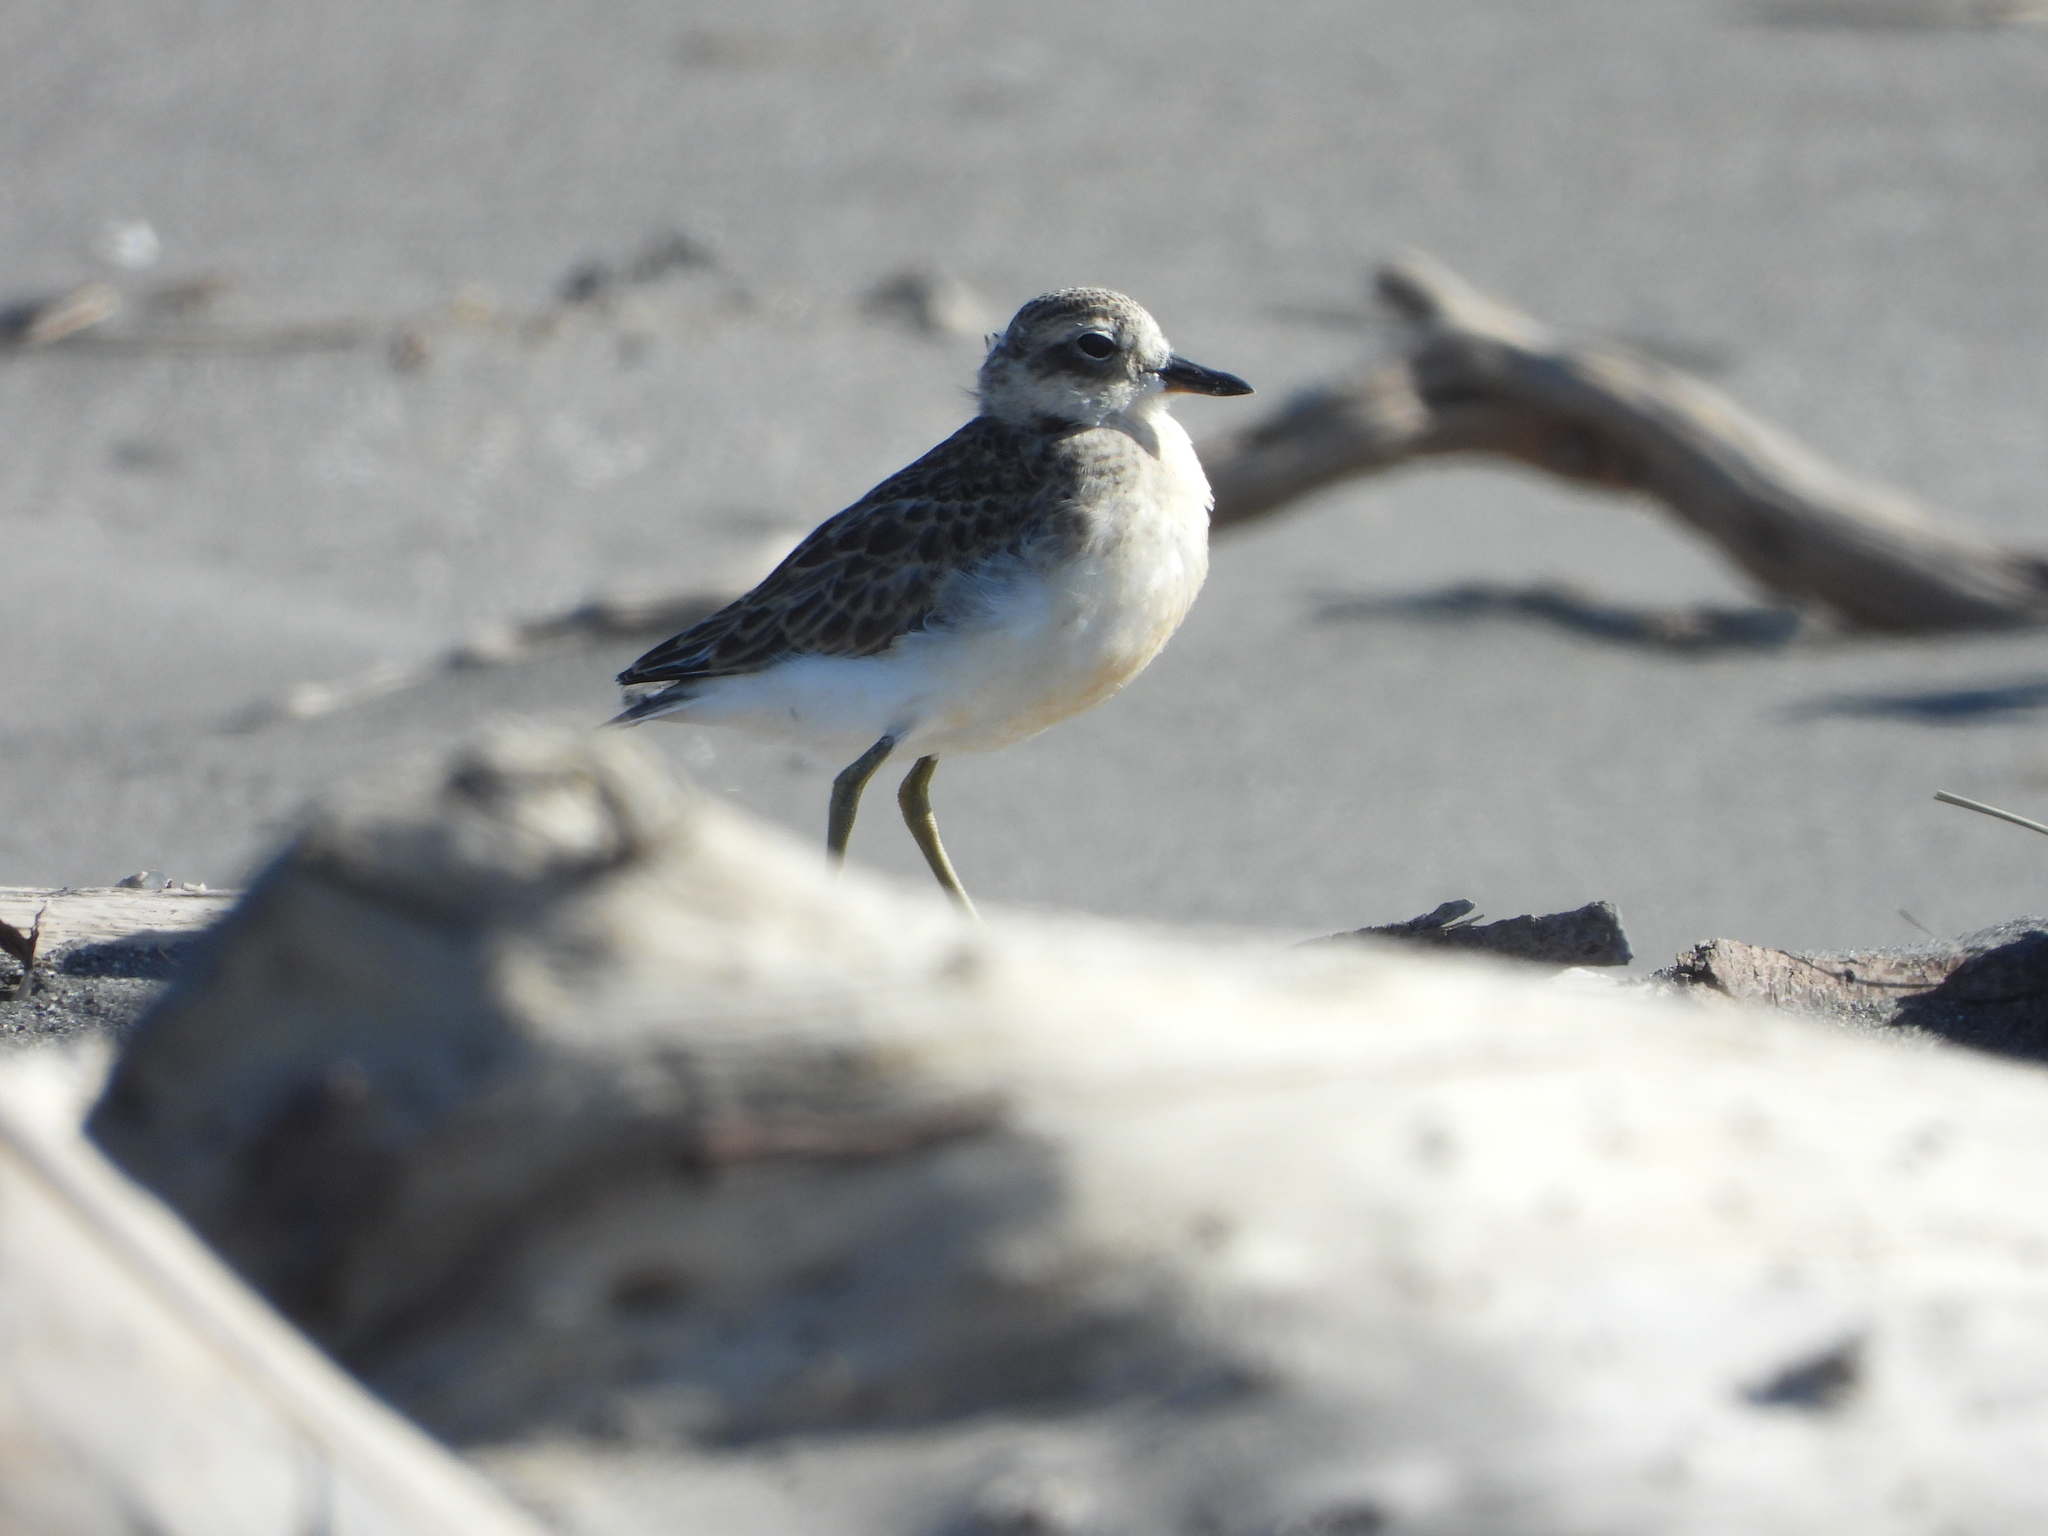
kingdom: Animalia
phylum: Chordata
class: Aves
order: Charadriiformes
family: Charadriidae
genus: Anarhynchus
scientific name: Anarhynchus
